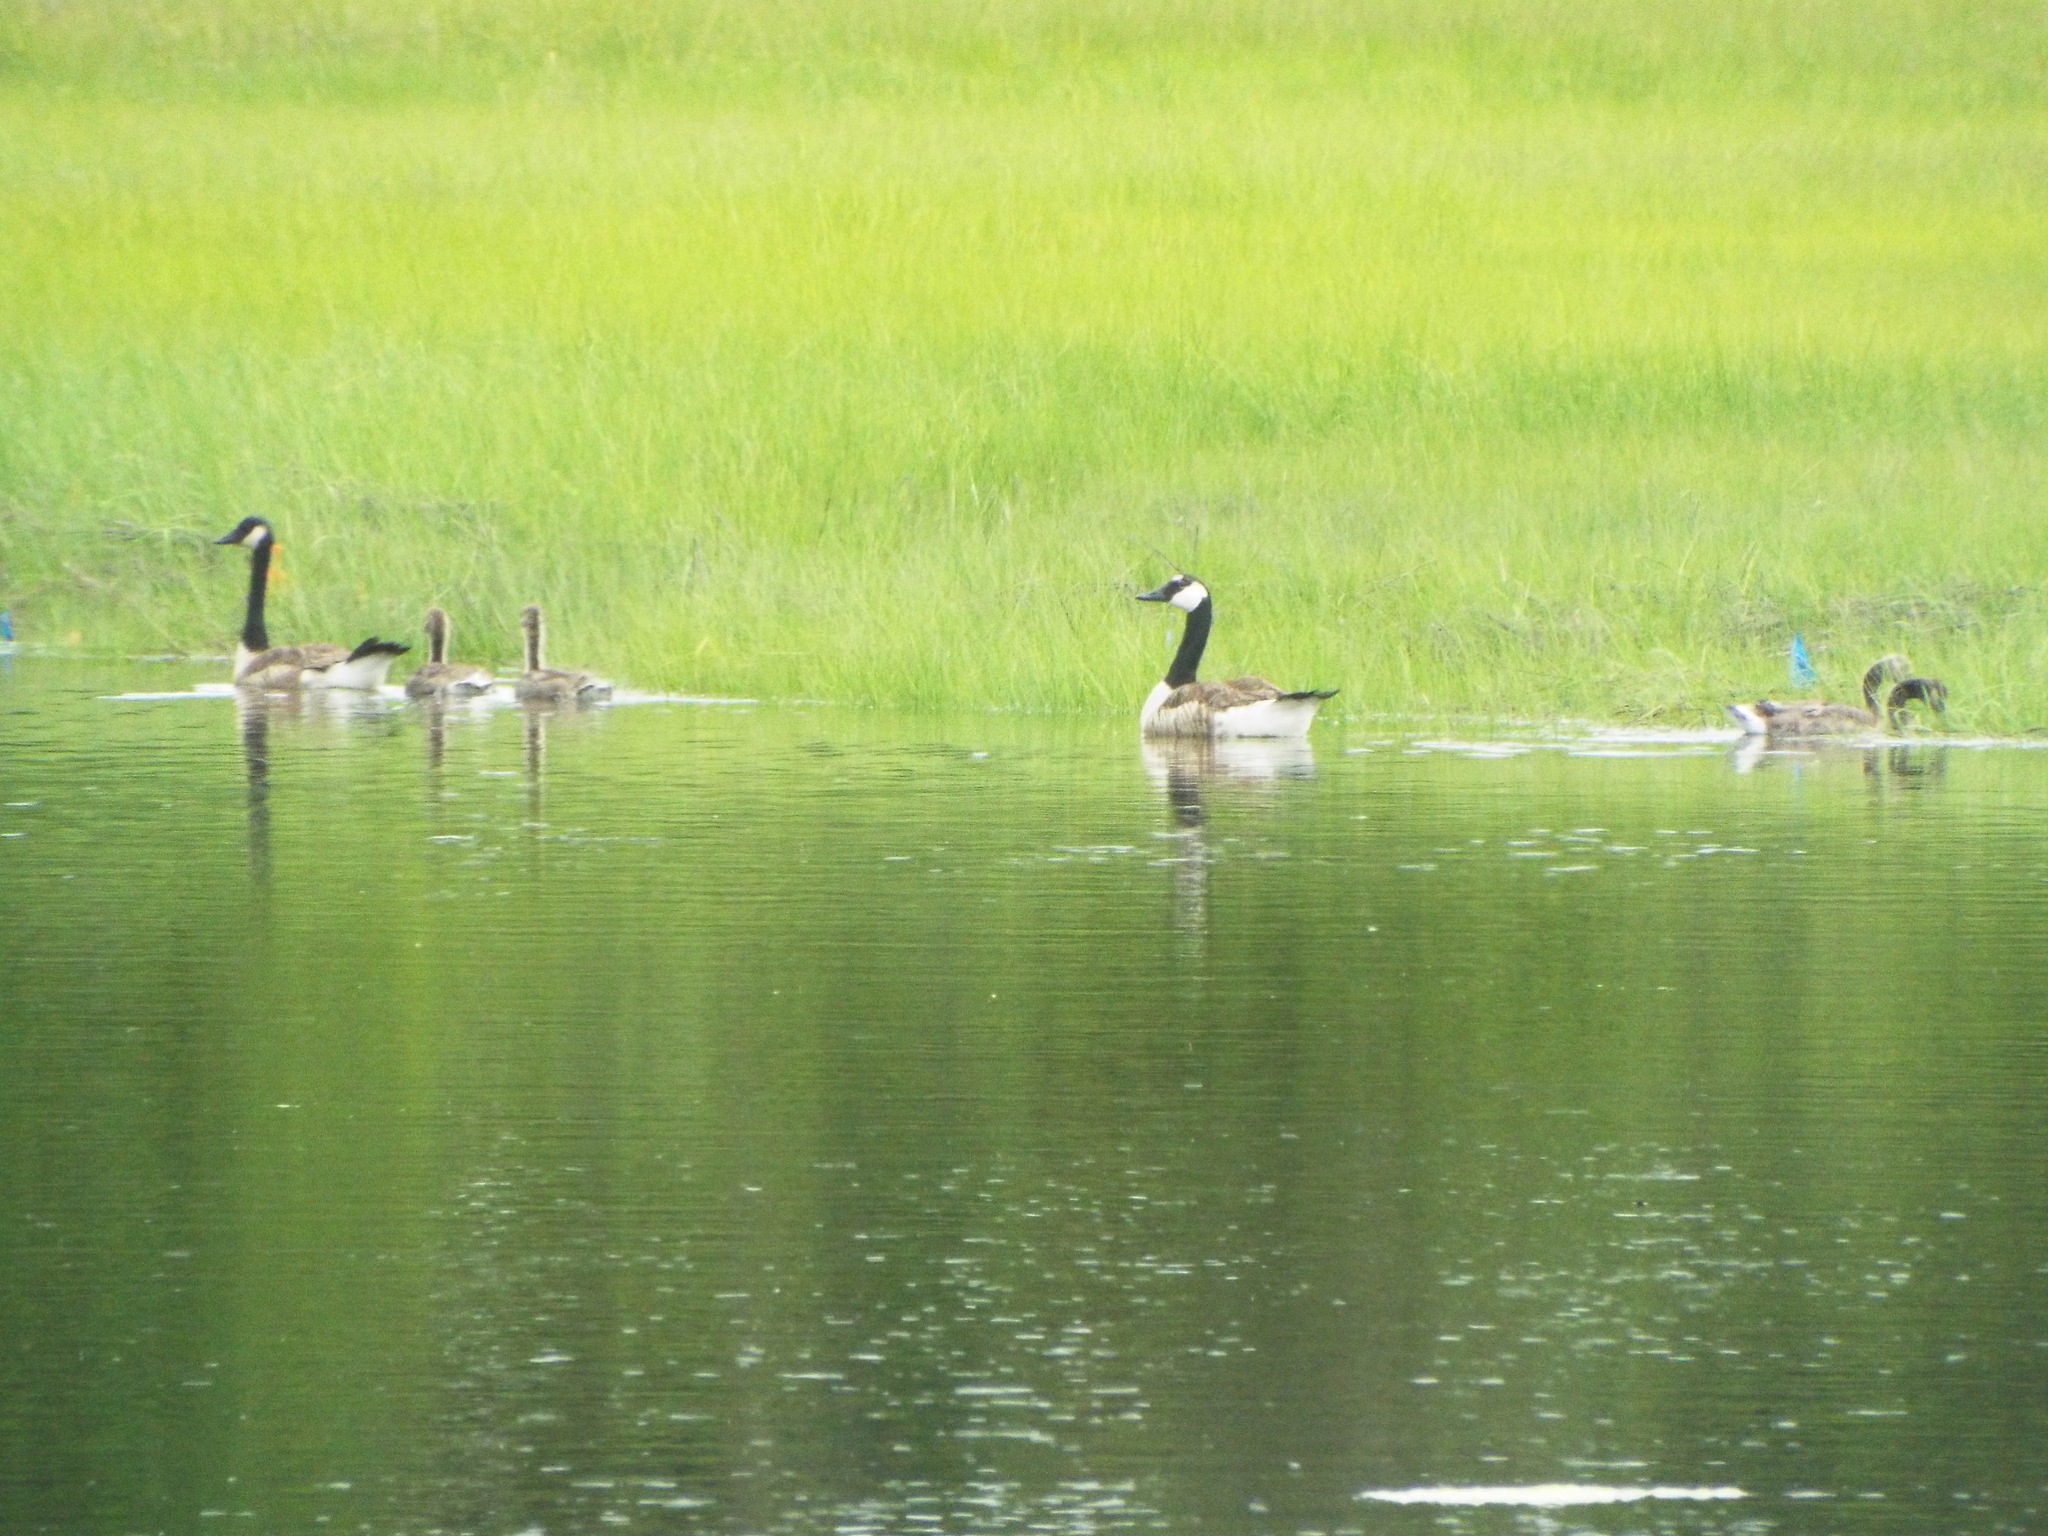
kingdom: Animalia
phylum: Chordata
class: Aves
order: Anseriformes
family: Anatidae
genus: Branta
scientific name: Branta canadensis
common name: Canada goose
